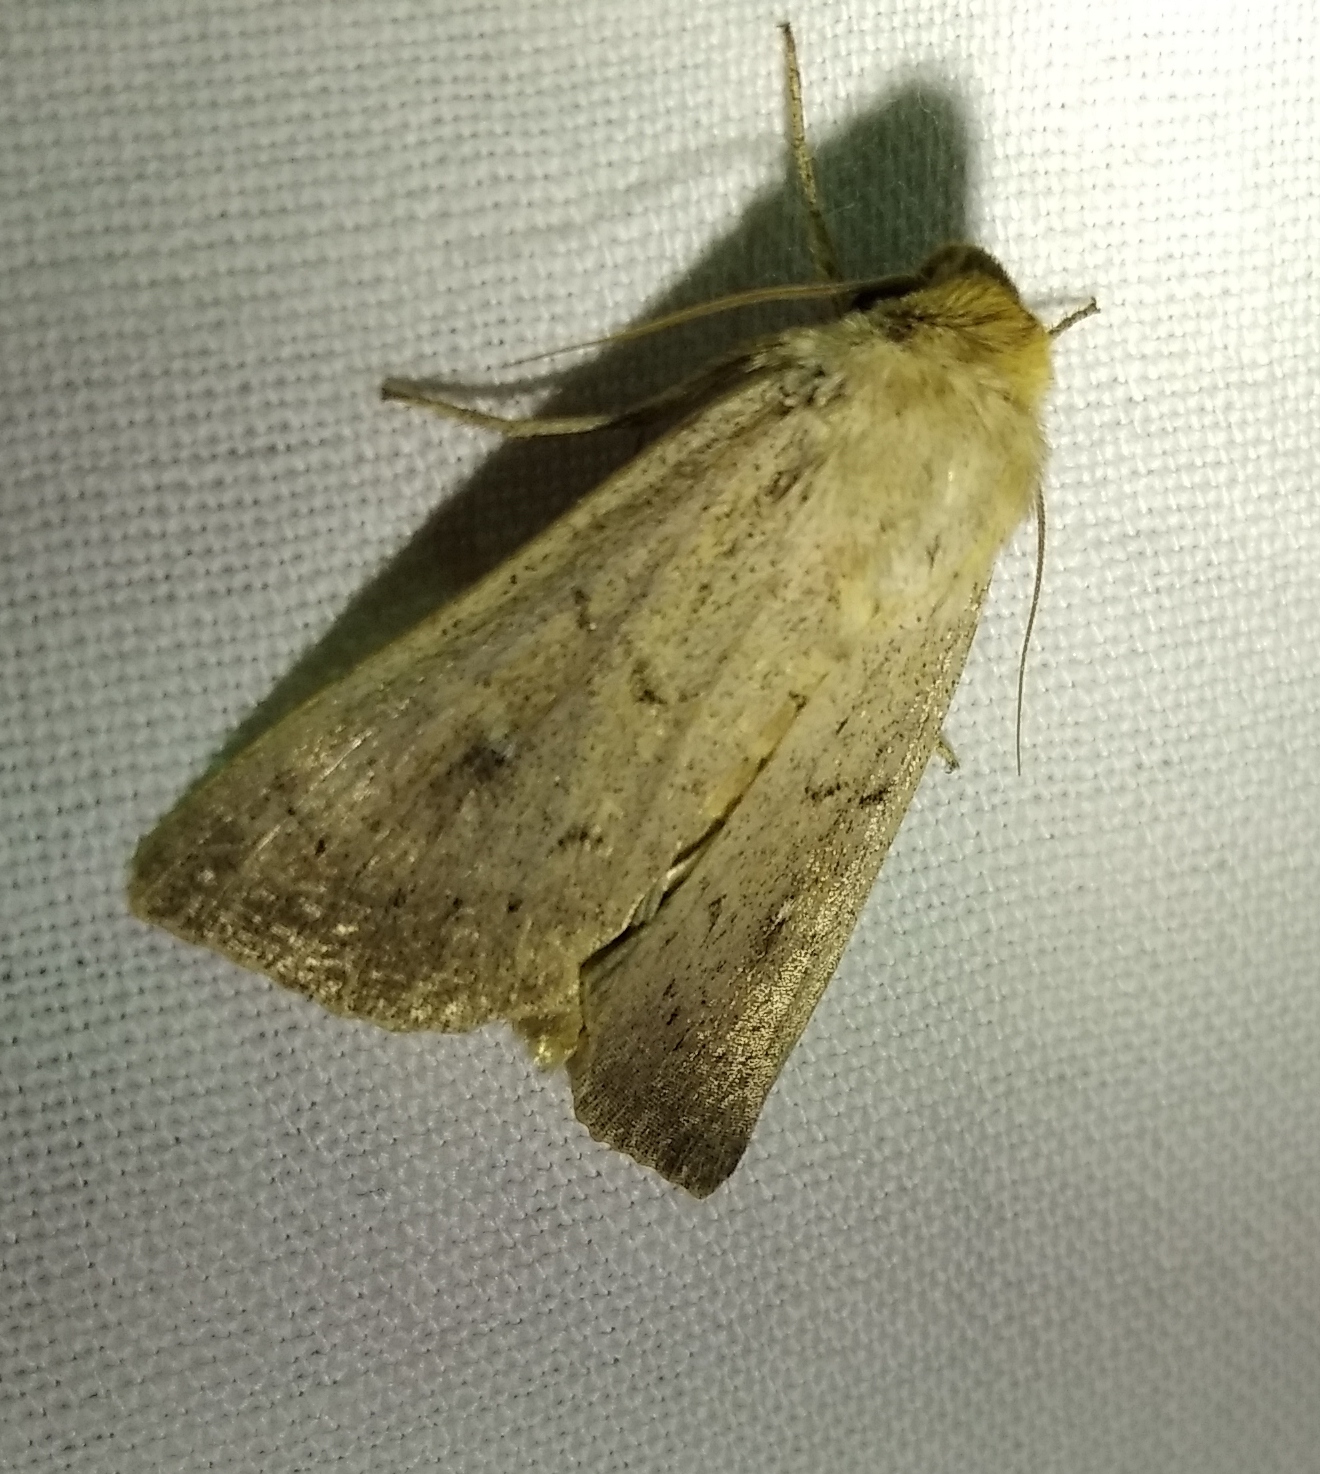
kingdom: Animalia
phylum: Arthropoda
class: Insecta
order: Lepidoptera
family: Noctuidae
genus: Mythimna
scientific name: Mythimna ferrago
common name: Clay
